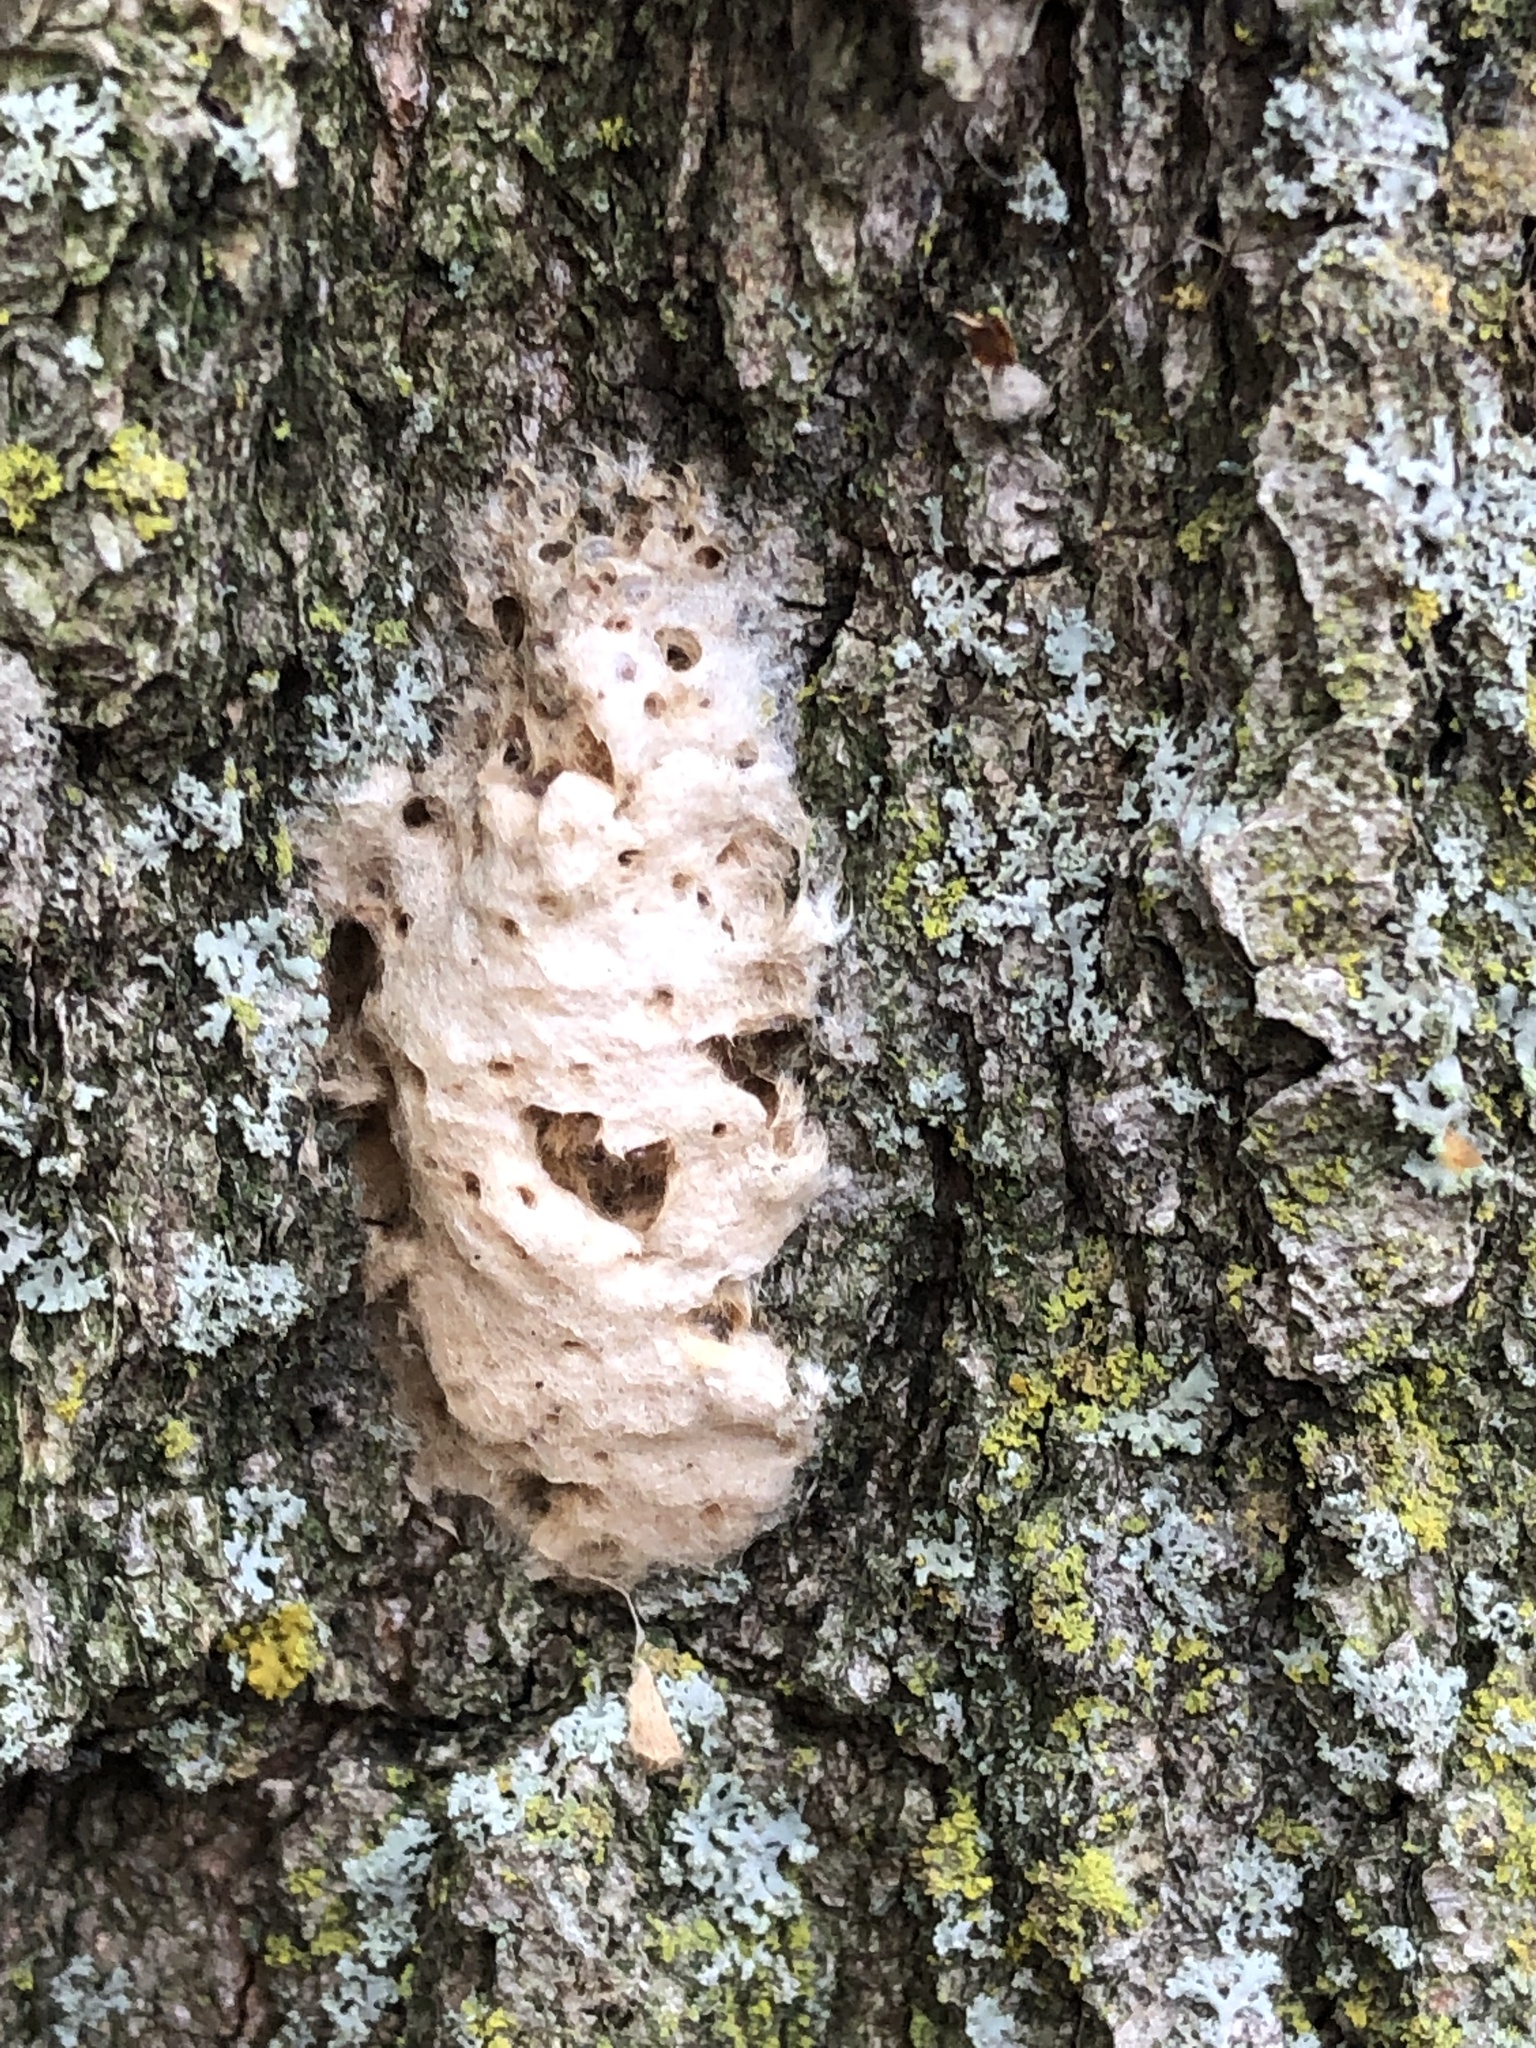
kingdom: Animalia
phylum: Arthropoda
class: Insecta
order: Lepidoptera
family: Erebidae
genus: Lymantria
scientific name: Lymantria dispar
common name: Gypsy moth
